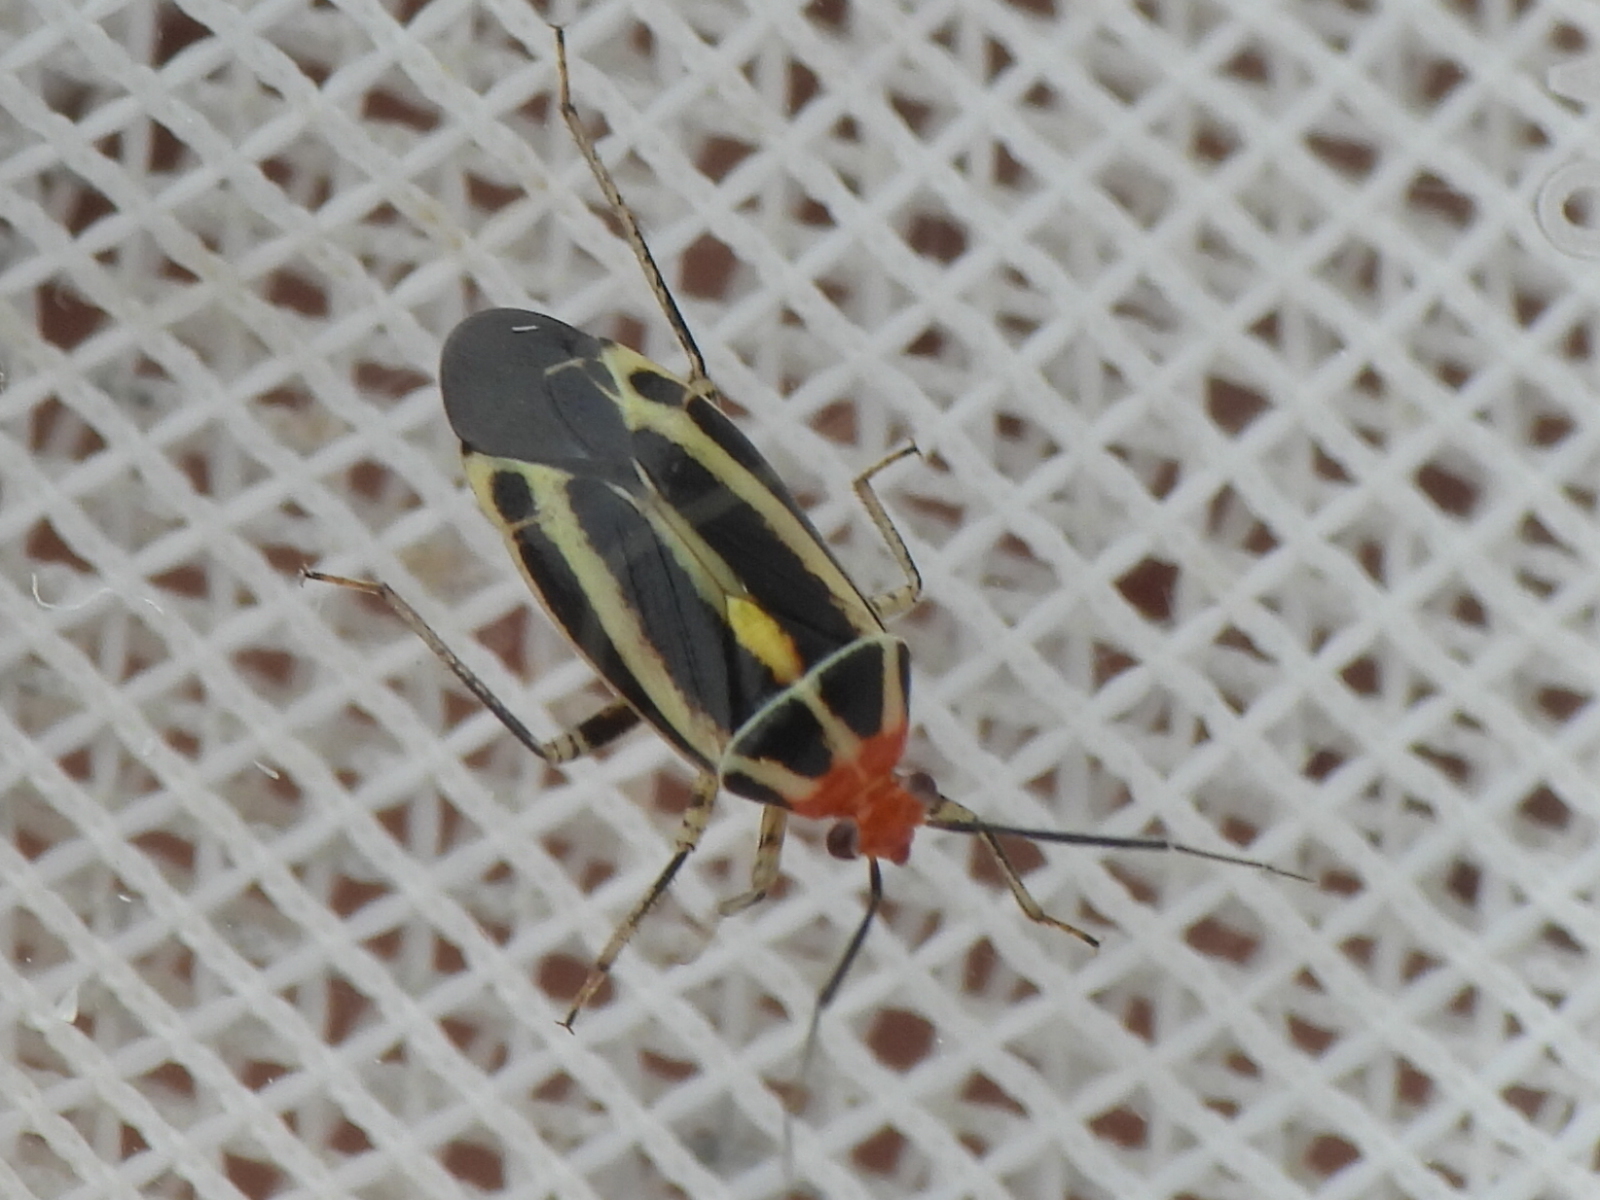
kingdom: Animalia
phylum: Arthropoda
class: Insecta
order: Hemiptera
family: Miridae
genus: Poecilocapsus
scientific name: Poecilocapsus lineatus
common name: Four-lined plant bug
